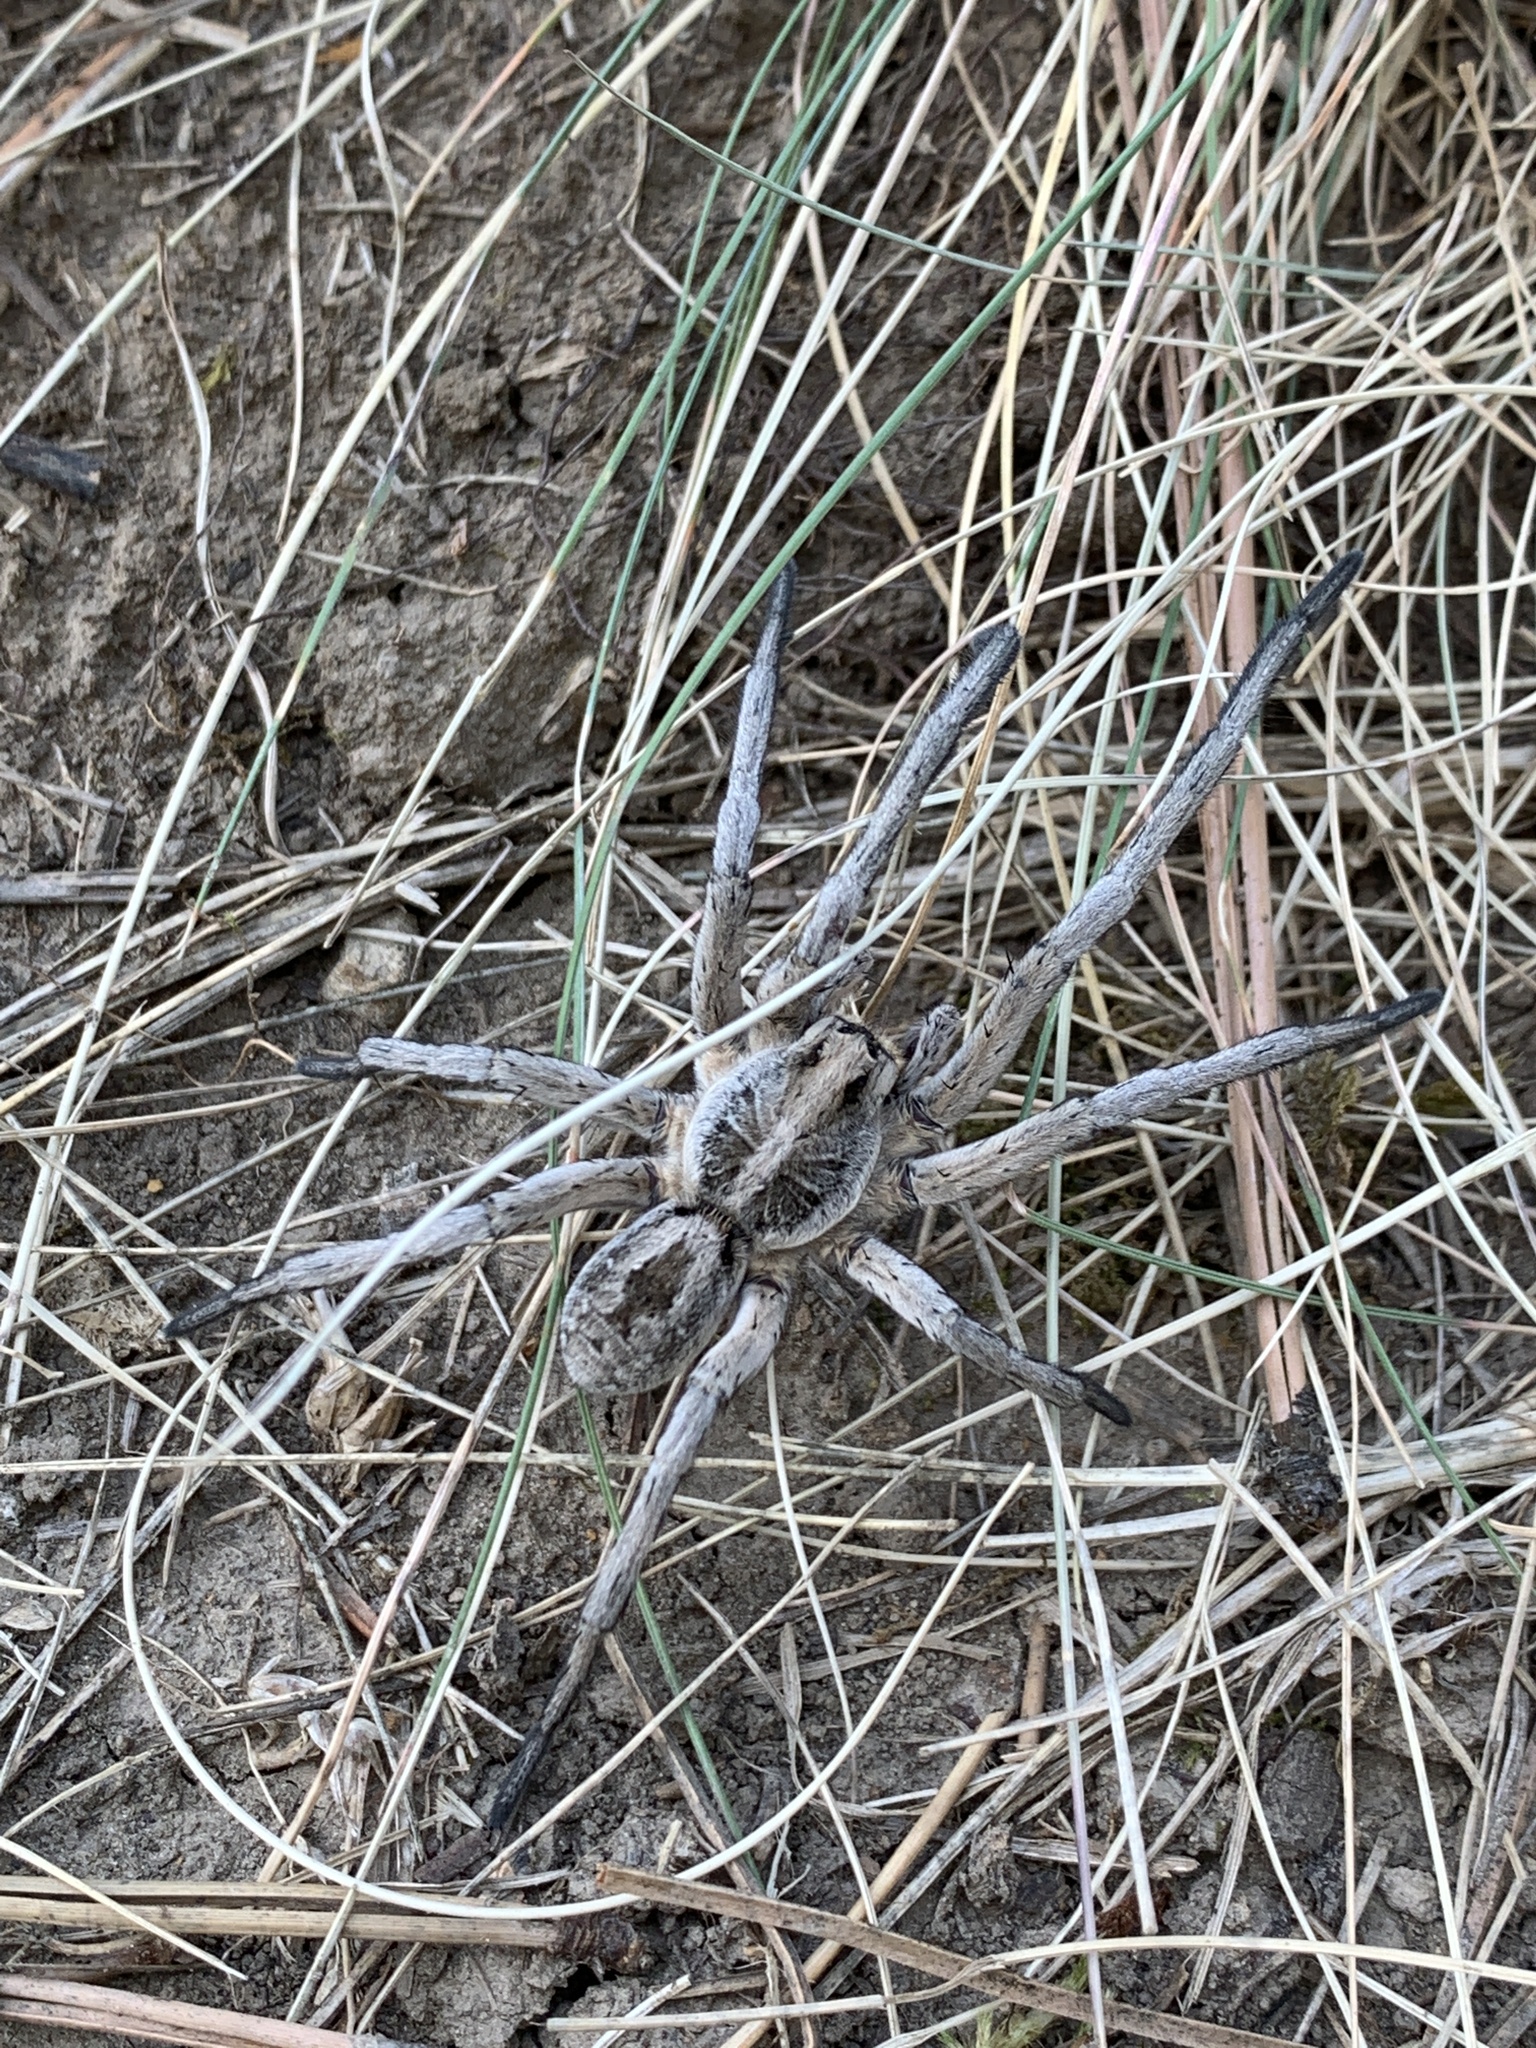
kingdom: Animalia
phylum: Arthropoda
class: Arachnida
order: Araneae
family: Lycosidae
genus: Hogna
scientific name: Hogna carolinensis
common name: Carolina wolf spider
